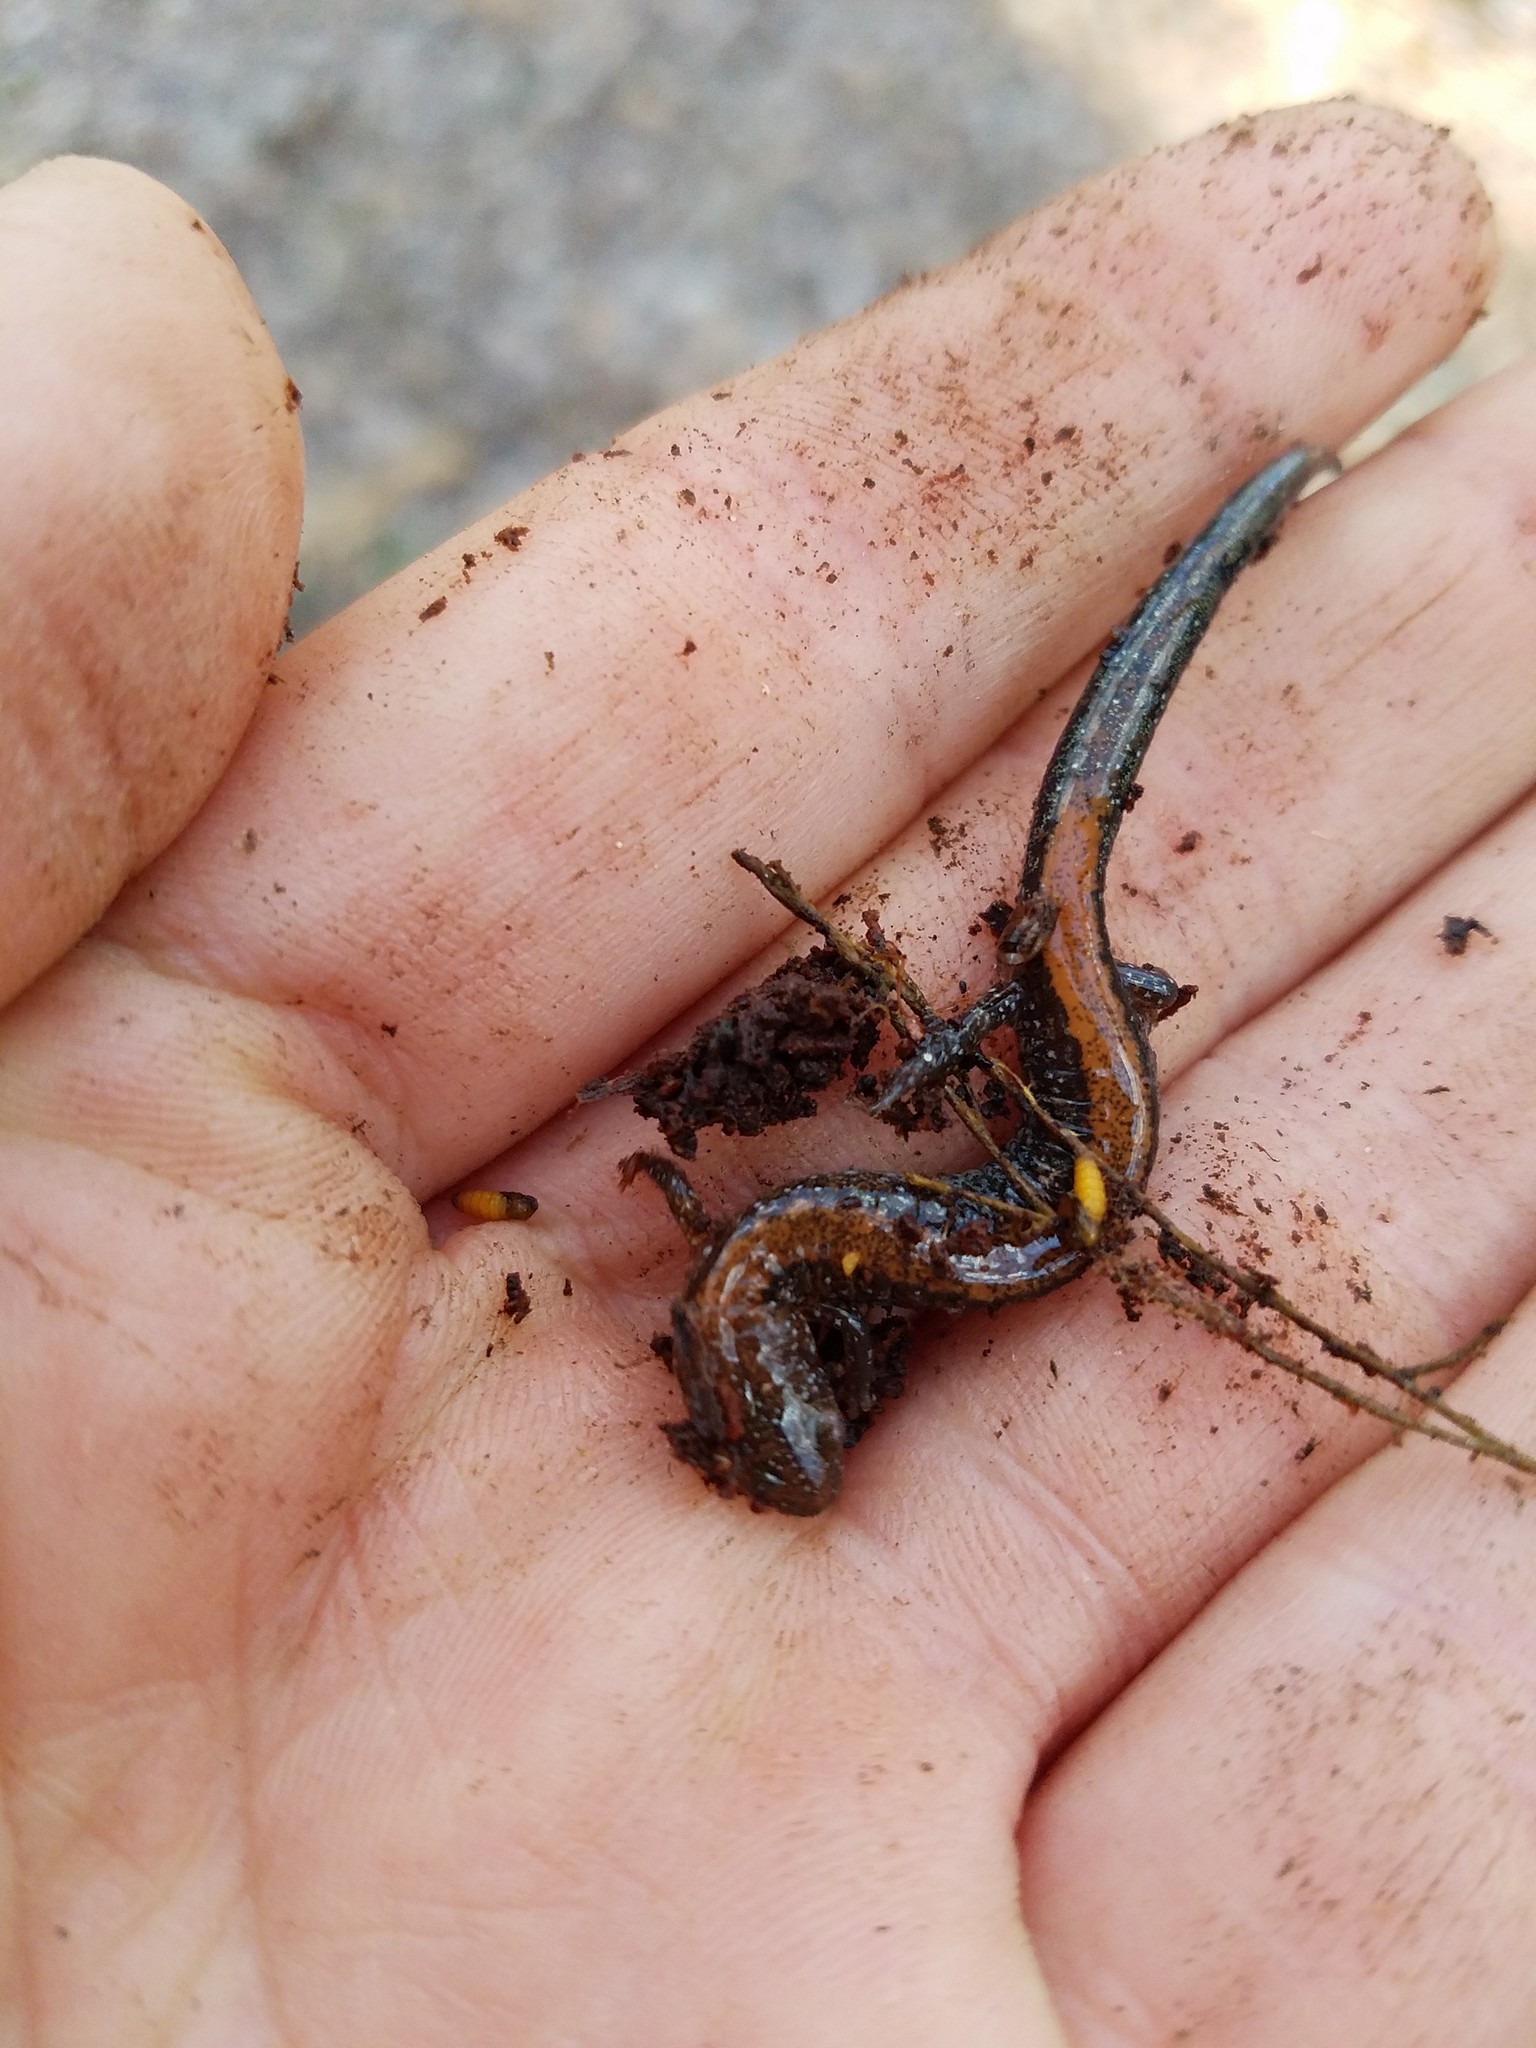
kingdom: Animalia
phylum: Chordata
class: Amphibia
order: Caudata
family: Plethodontidae
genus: Plethodon
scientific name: Plethodon cinereus
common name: Redback salamander
